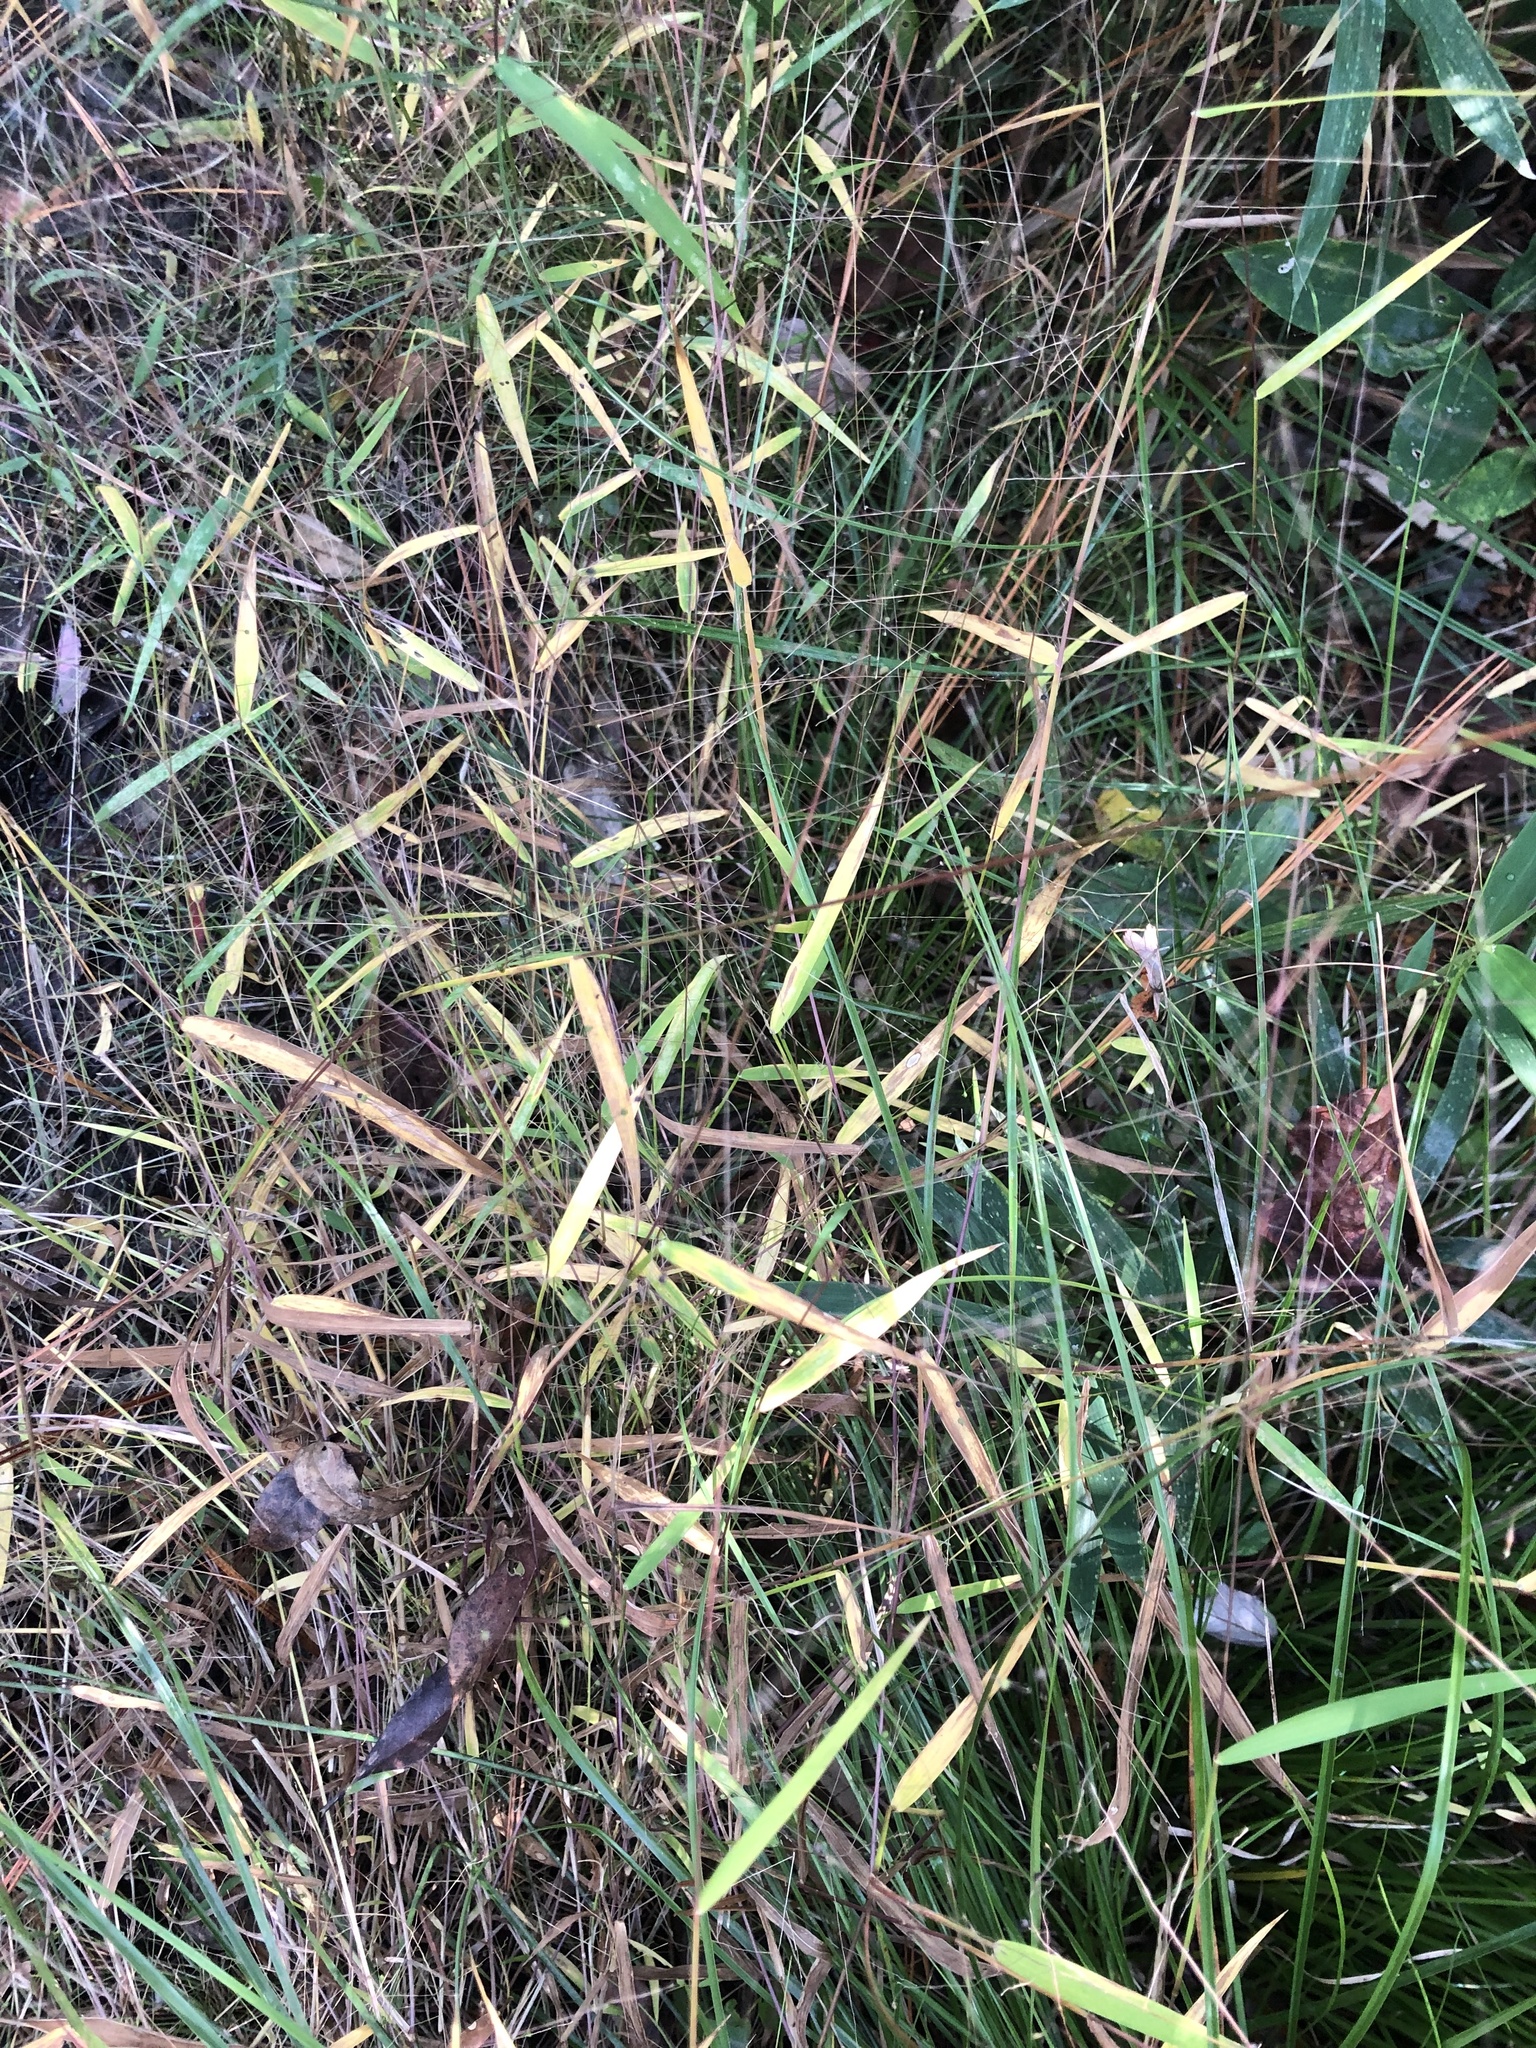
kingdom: Plantae
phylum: Tracheophyta
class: Liliopsida
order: Poales
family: Poaceae
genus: Kellochloa
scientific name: Kellochloa verrucosa
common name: Warty panic grass
